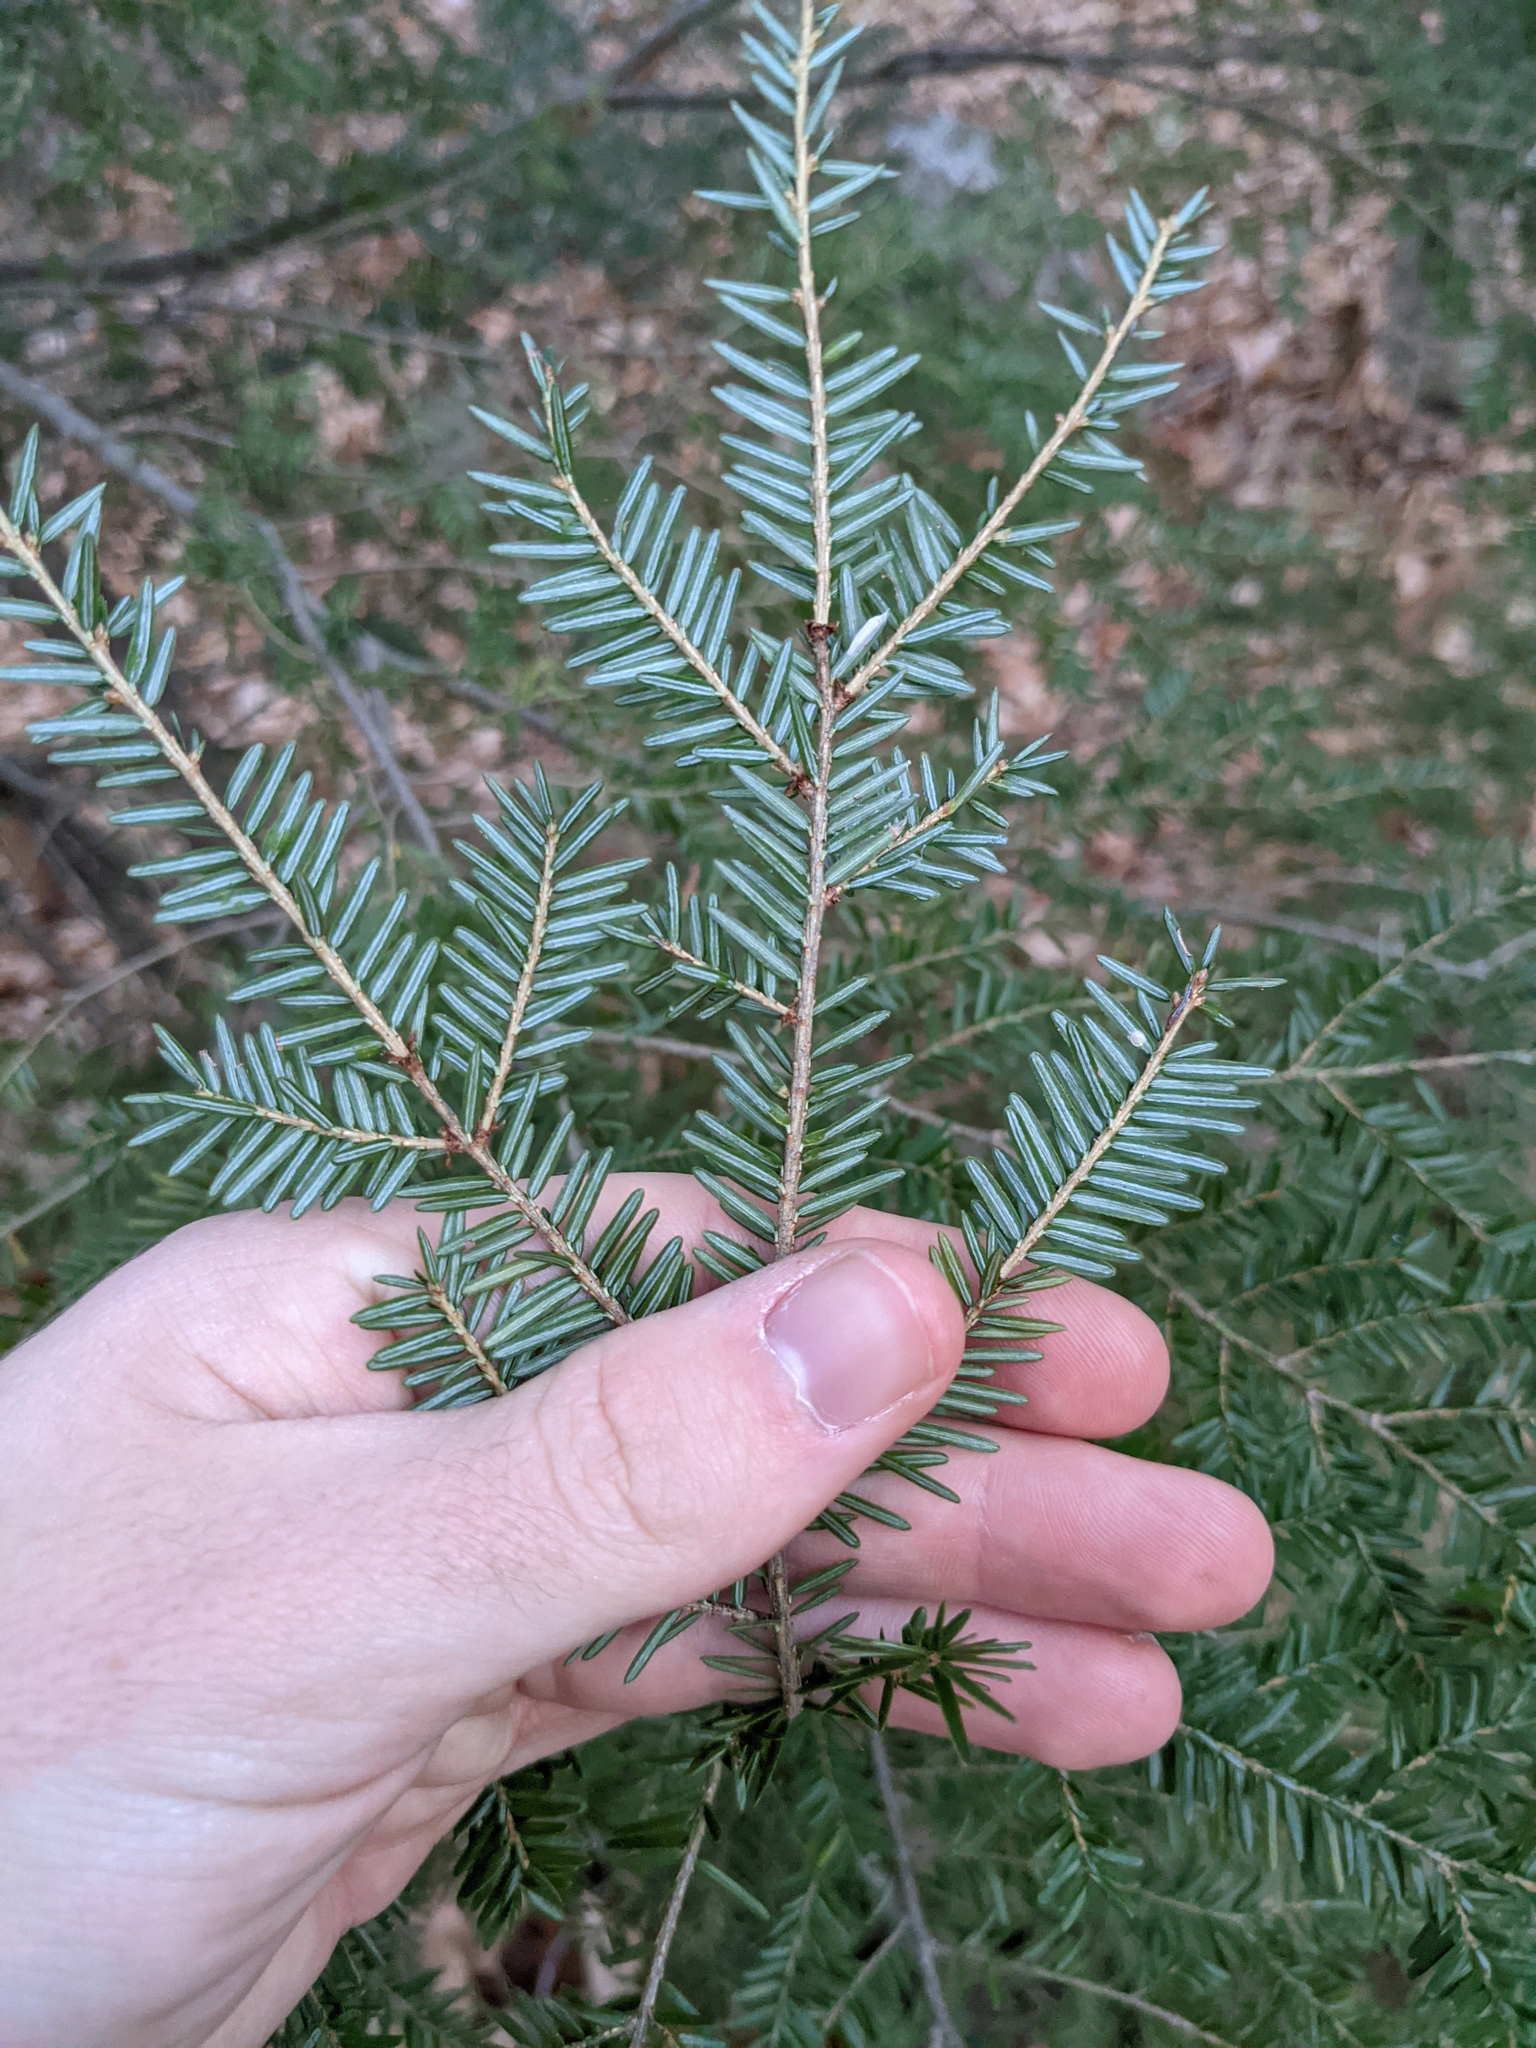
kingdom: Plantae
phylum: Tracheophyta
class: Pinopsida
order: Pinales
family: Pinaceae
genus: Tsuga
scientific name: Tsuga canadensis
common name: Eastern hemlock
